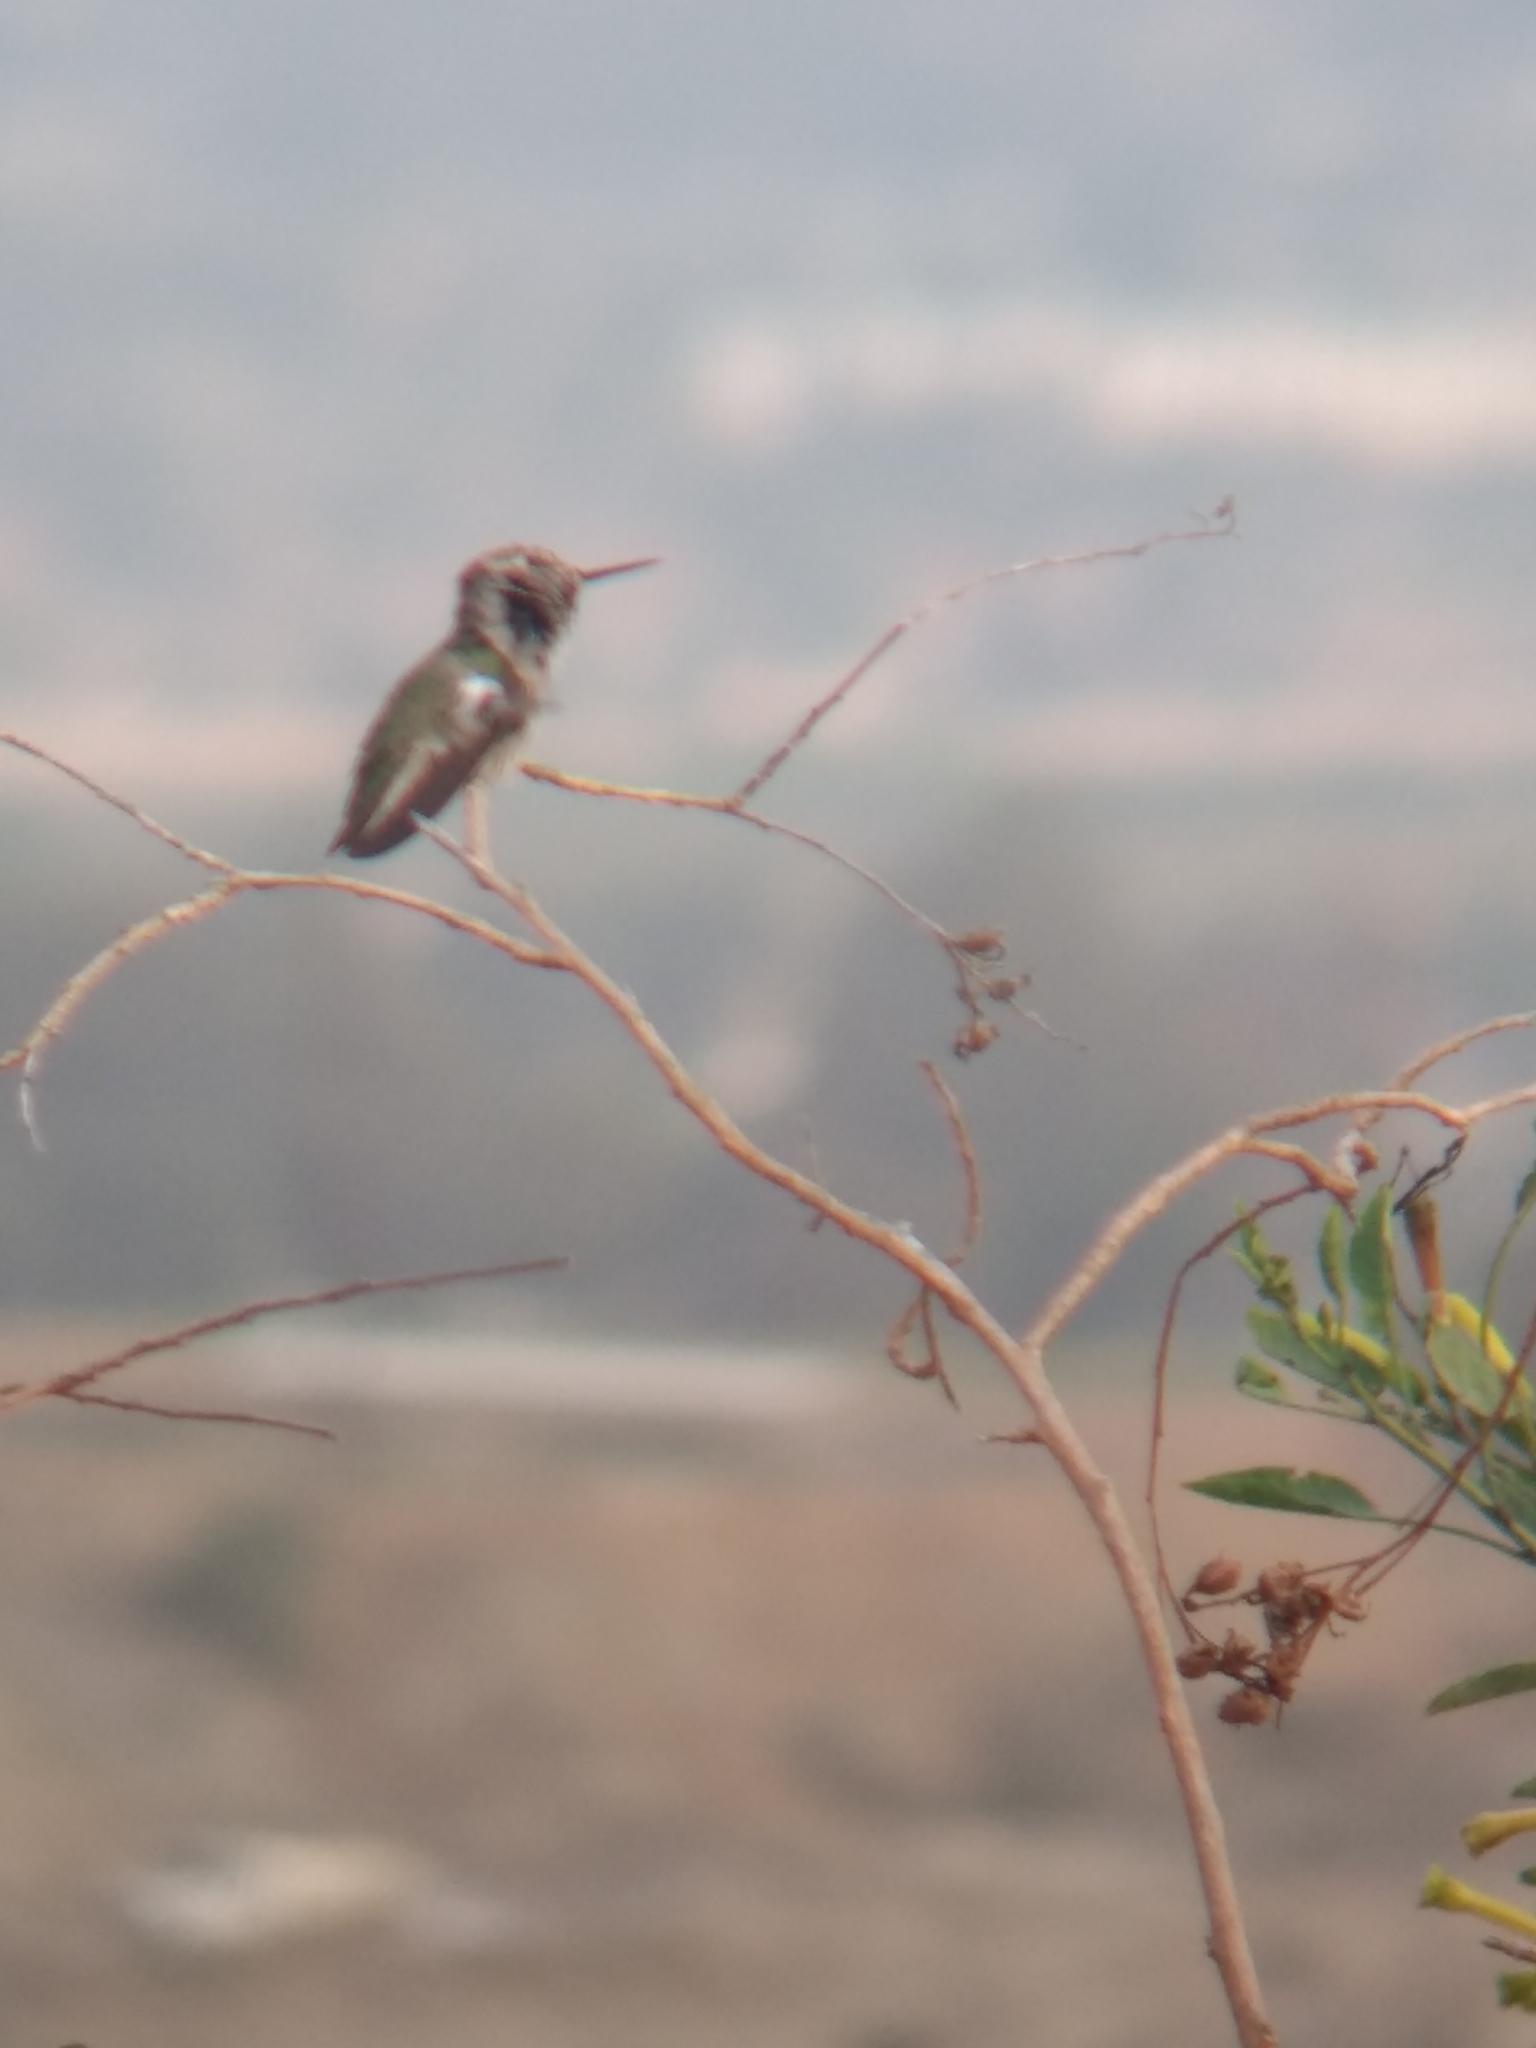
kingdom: Animalia
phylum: Chordata
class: Aves
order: Apodiformes
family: Trochilidae
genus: Calypte
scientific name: Calypte anna
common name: Anna's hummingbird
